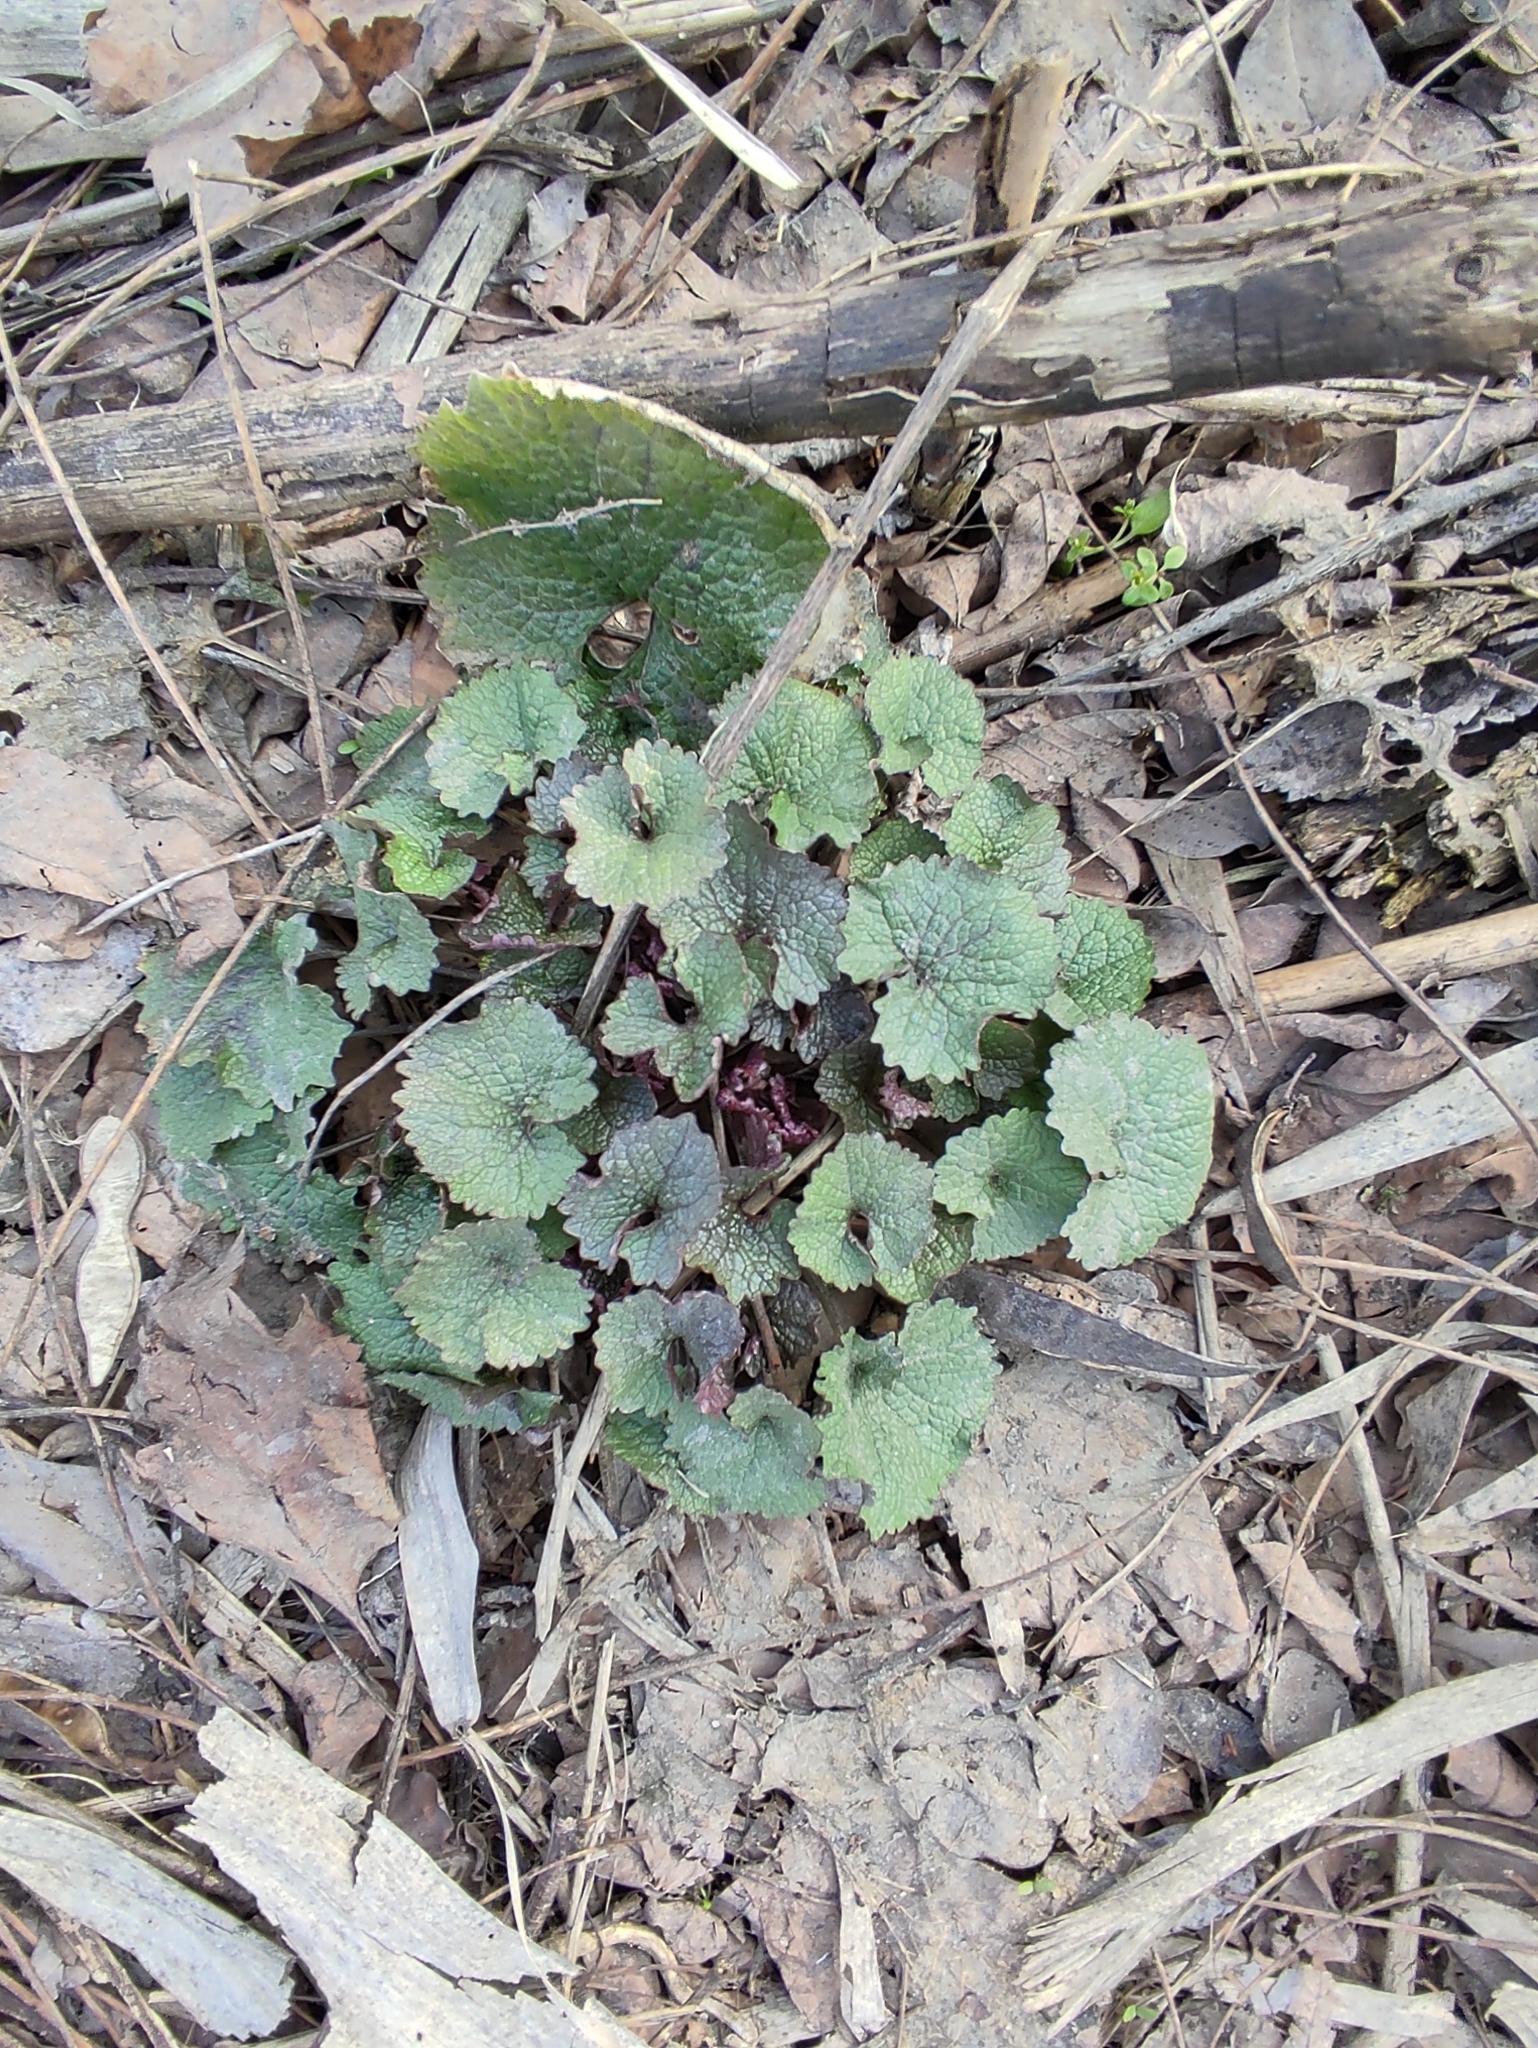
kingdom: Plantae
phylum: Tracheophyta
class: Magnoliopsida
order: Brassicales
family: Brassicaceae
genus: Alliaria
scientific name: Alliaria petiolata
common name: Garlic mustard
